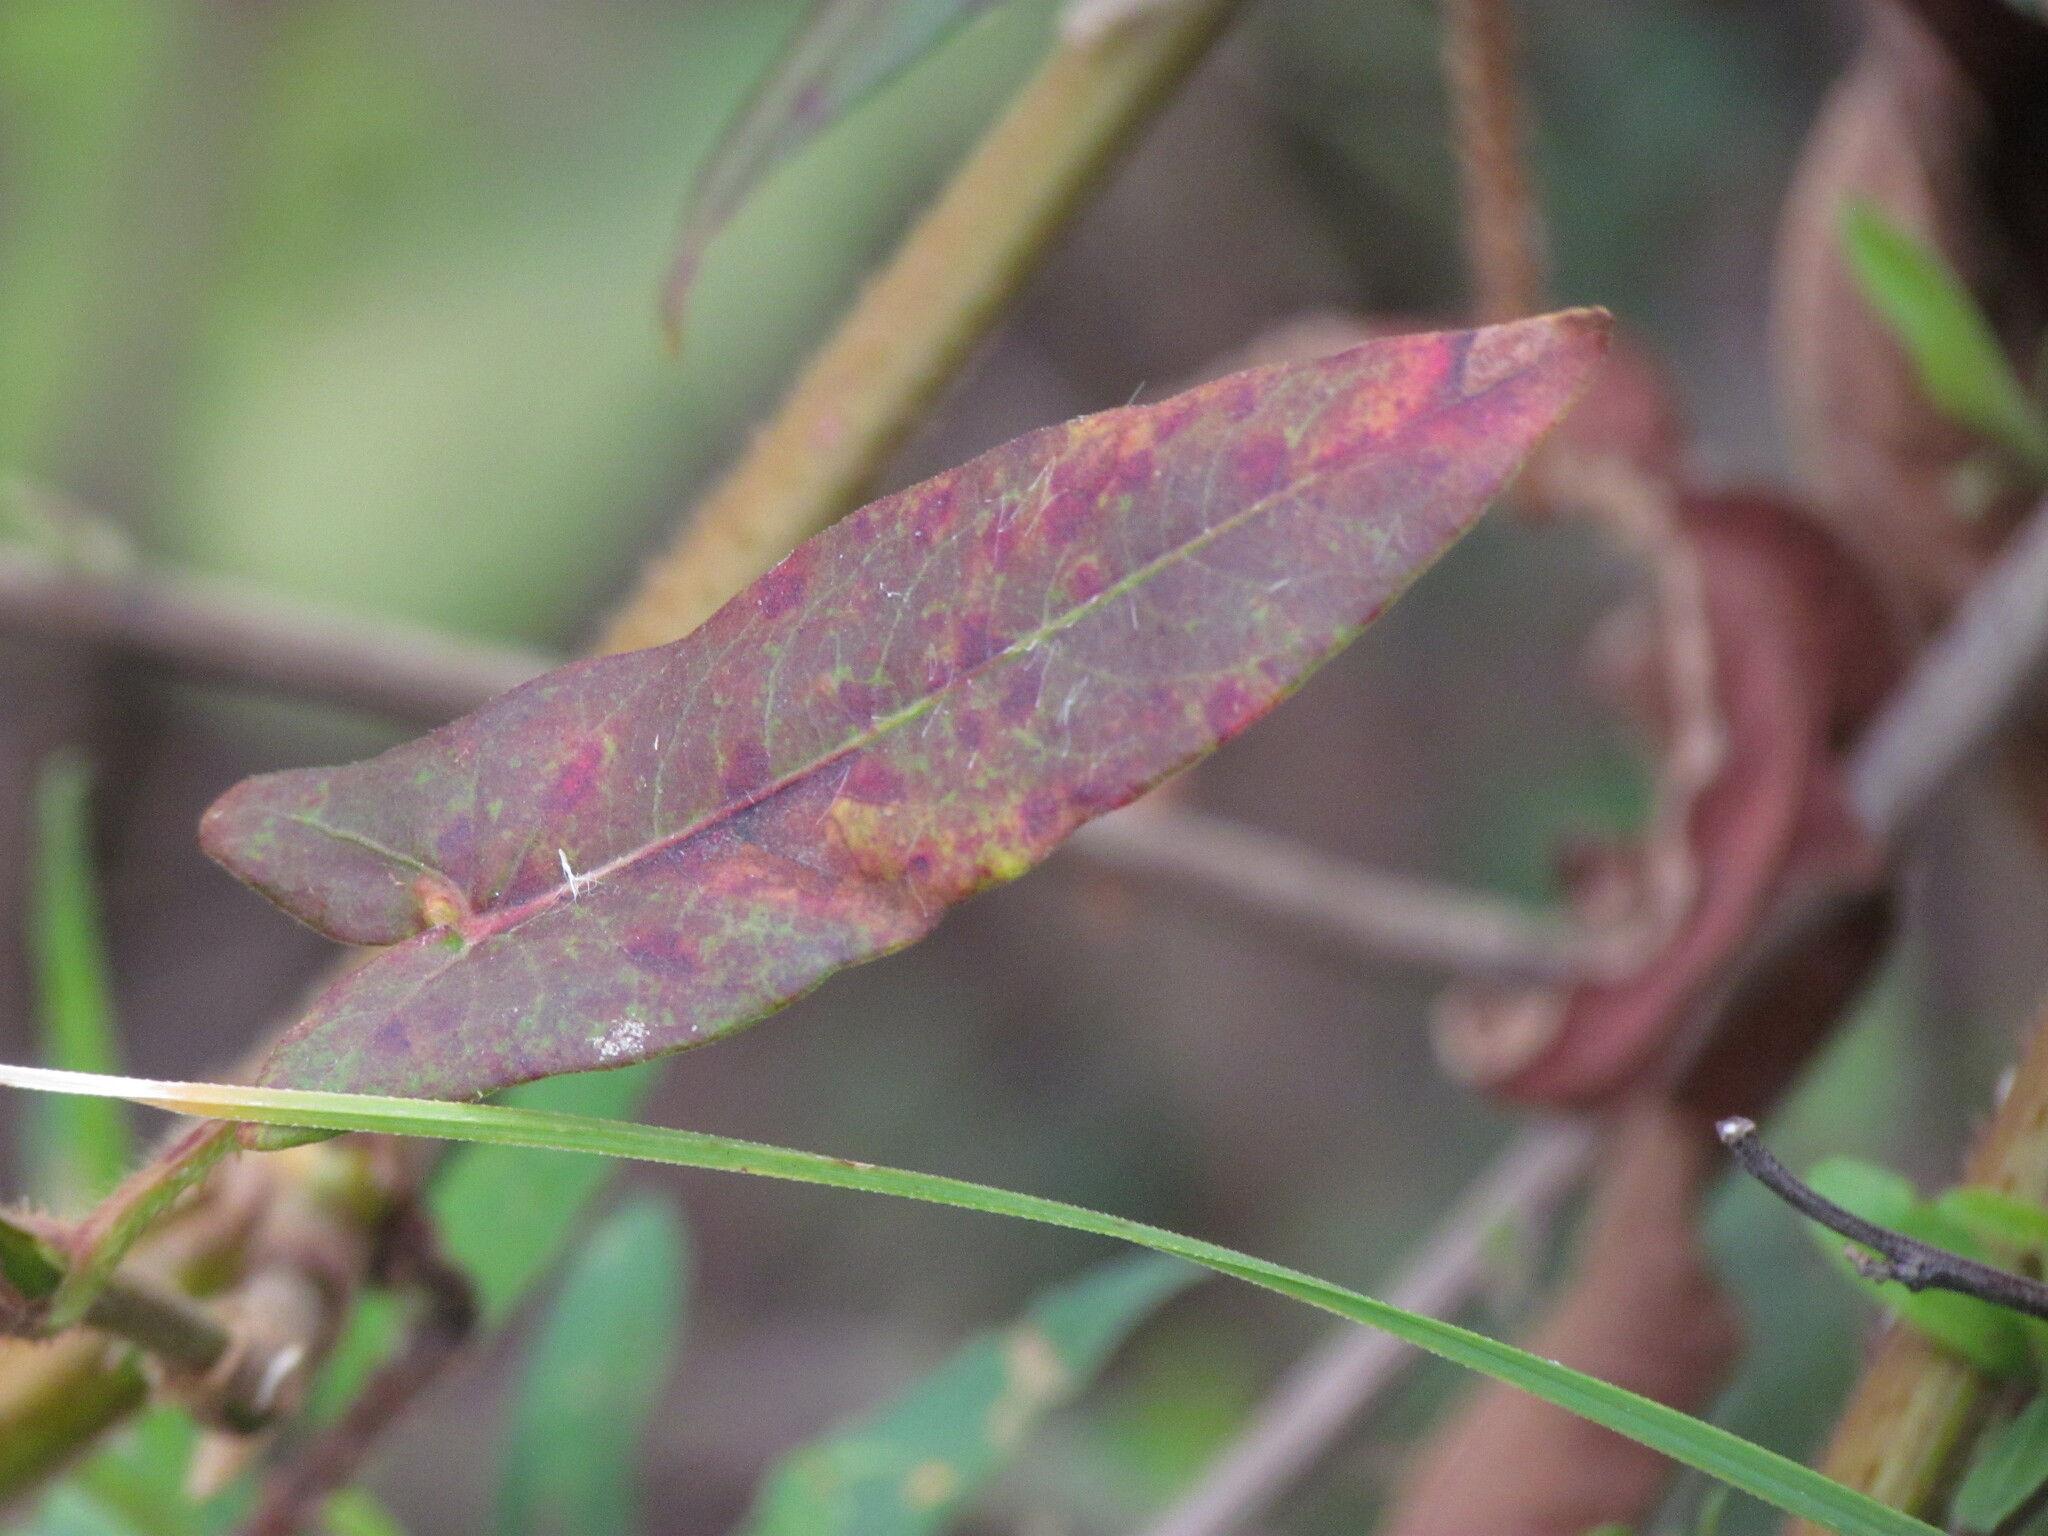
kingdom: Plantae
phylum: Tracheophyta
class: Magnoliopsida
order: Caryophyllales
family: Polygonaceae
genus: Persicaria
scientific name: Persicaria stelligera
